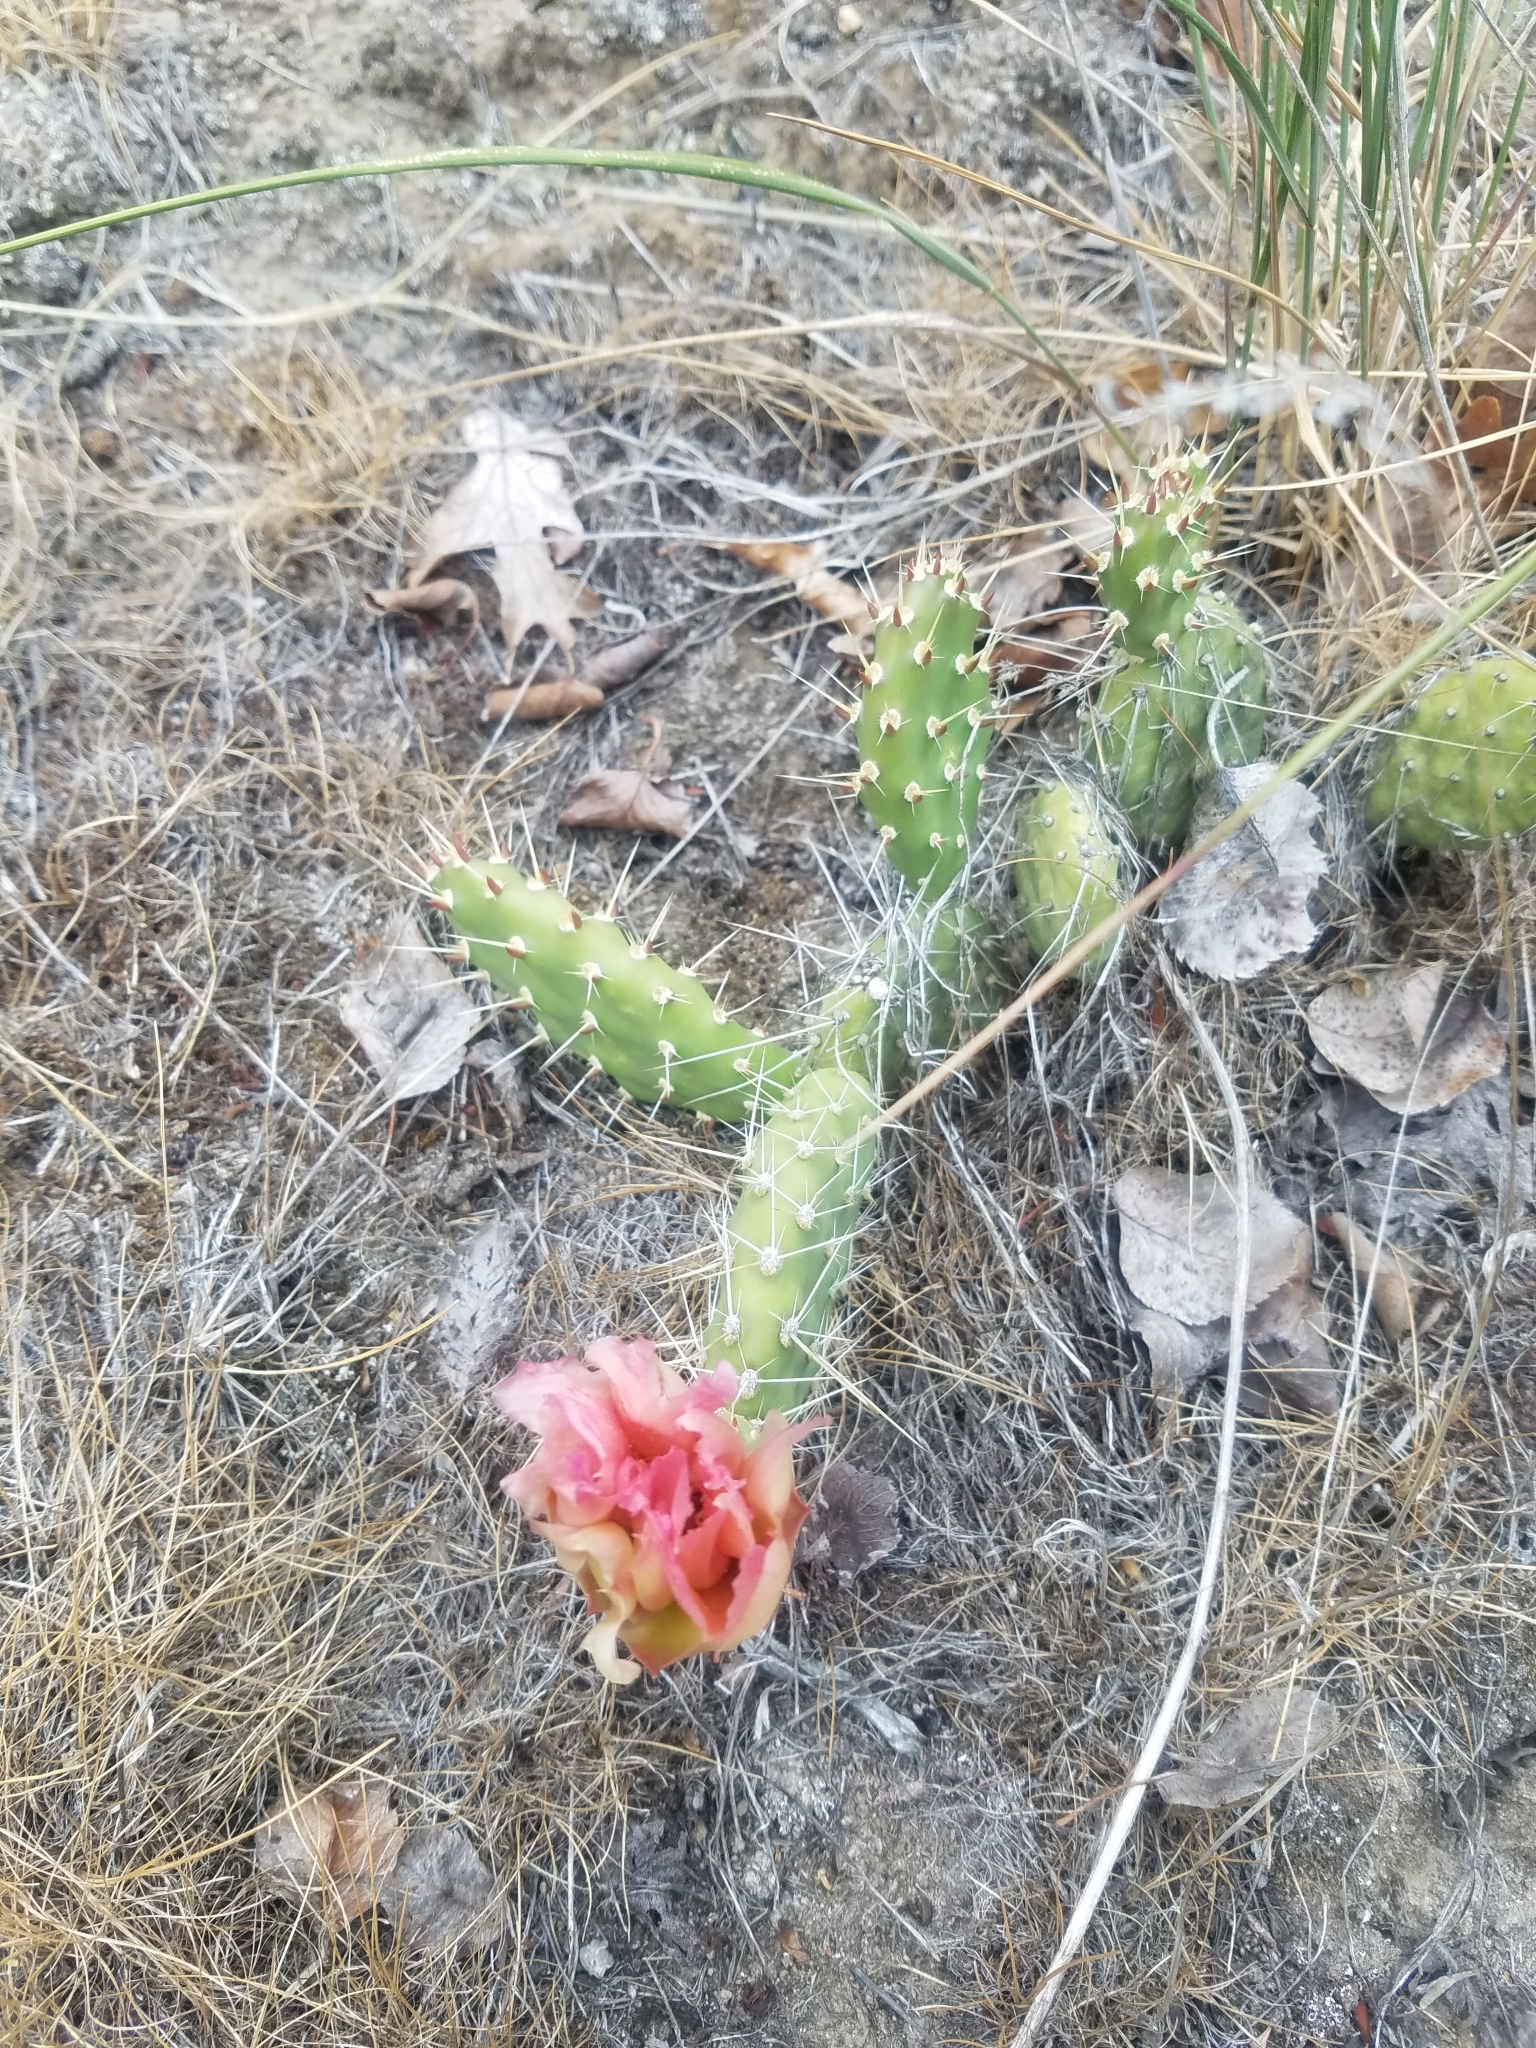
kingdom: Plantae
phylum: Tracheophyta
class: Magnoliopsida
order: Caryophyllales
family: Cactaceae
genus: Opuntia
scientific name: Opuntia columbiana
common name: Columbia prickly-pear
